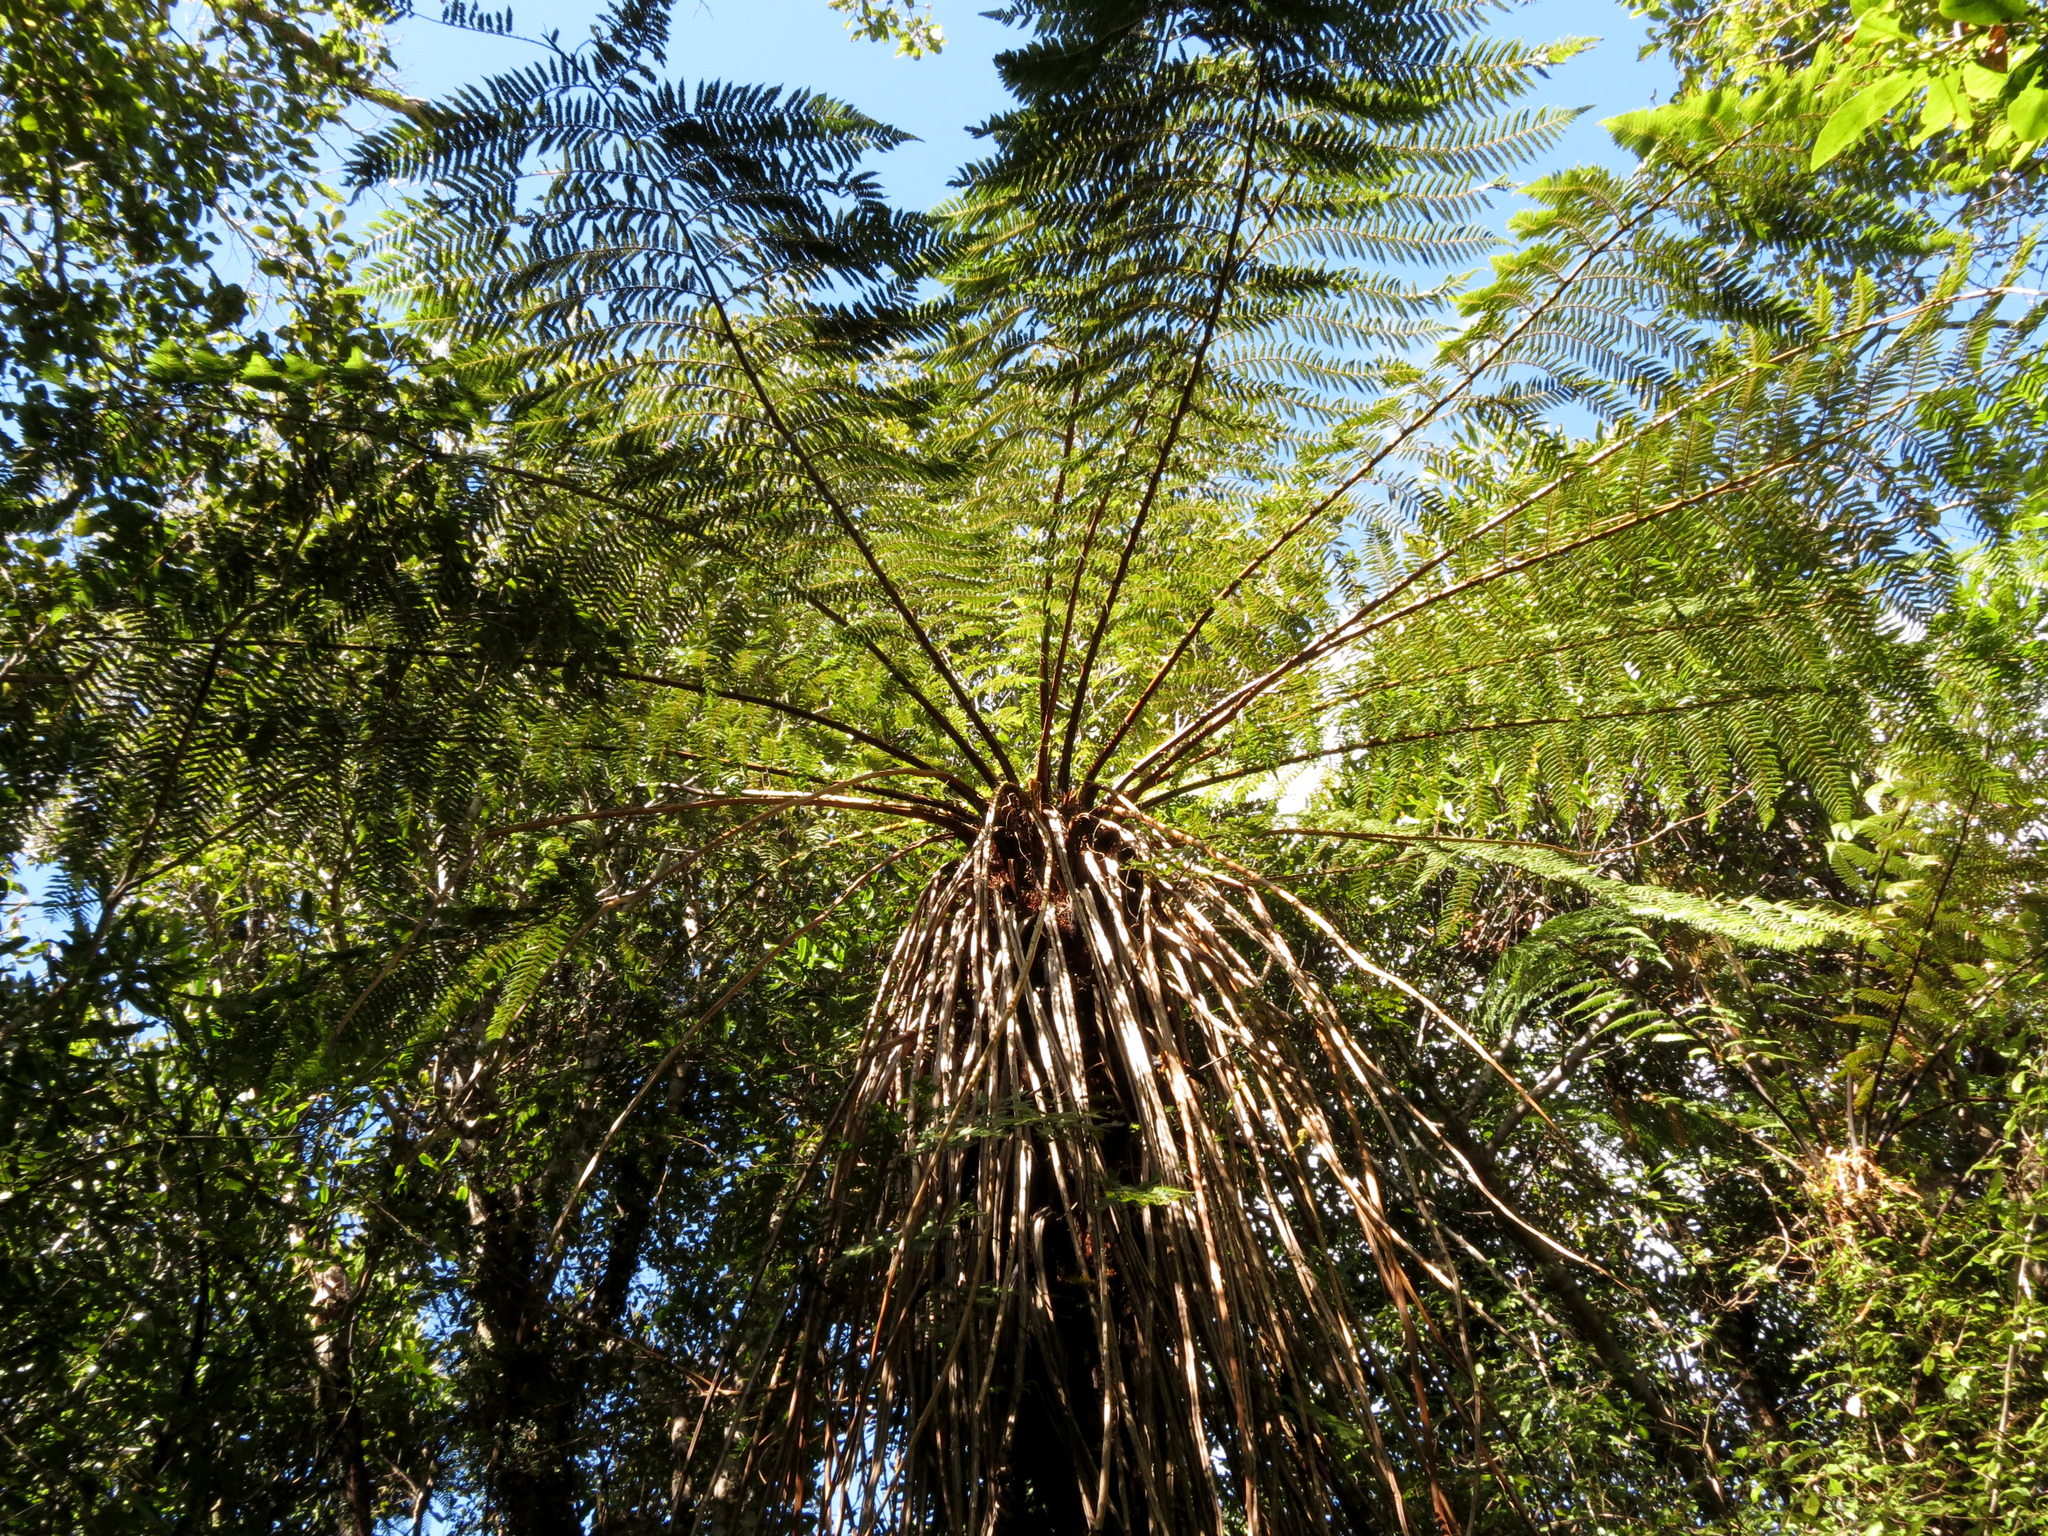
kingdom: Plantae
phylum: Tracheophyta
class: Polypodiopsida
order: Cyatheales
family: Cyatheaceae
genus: Alsophila
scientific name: Alsophila smithii
